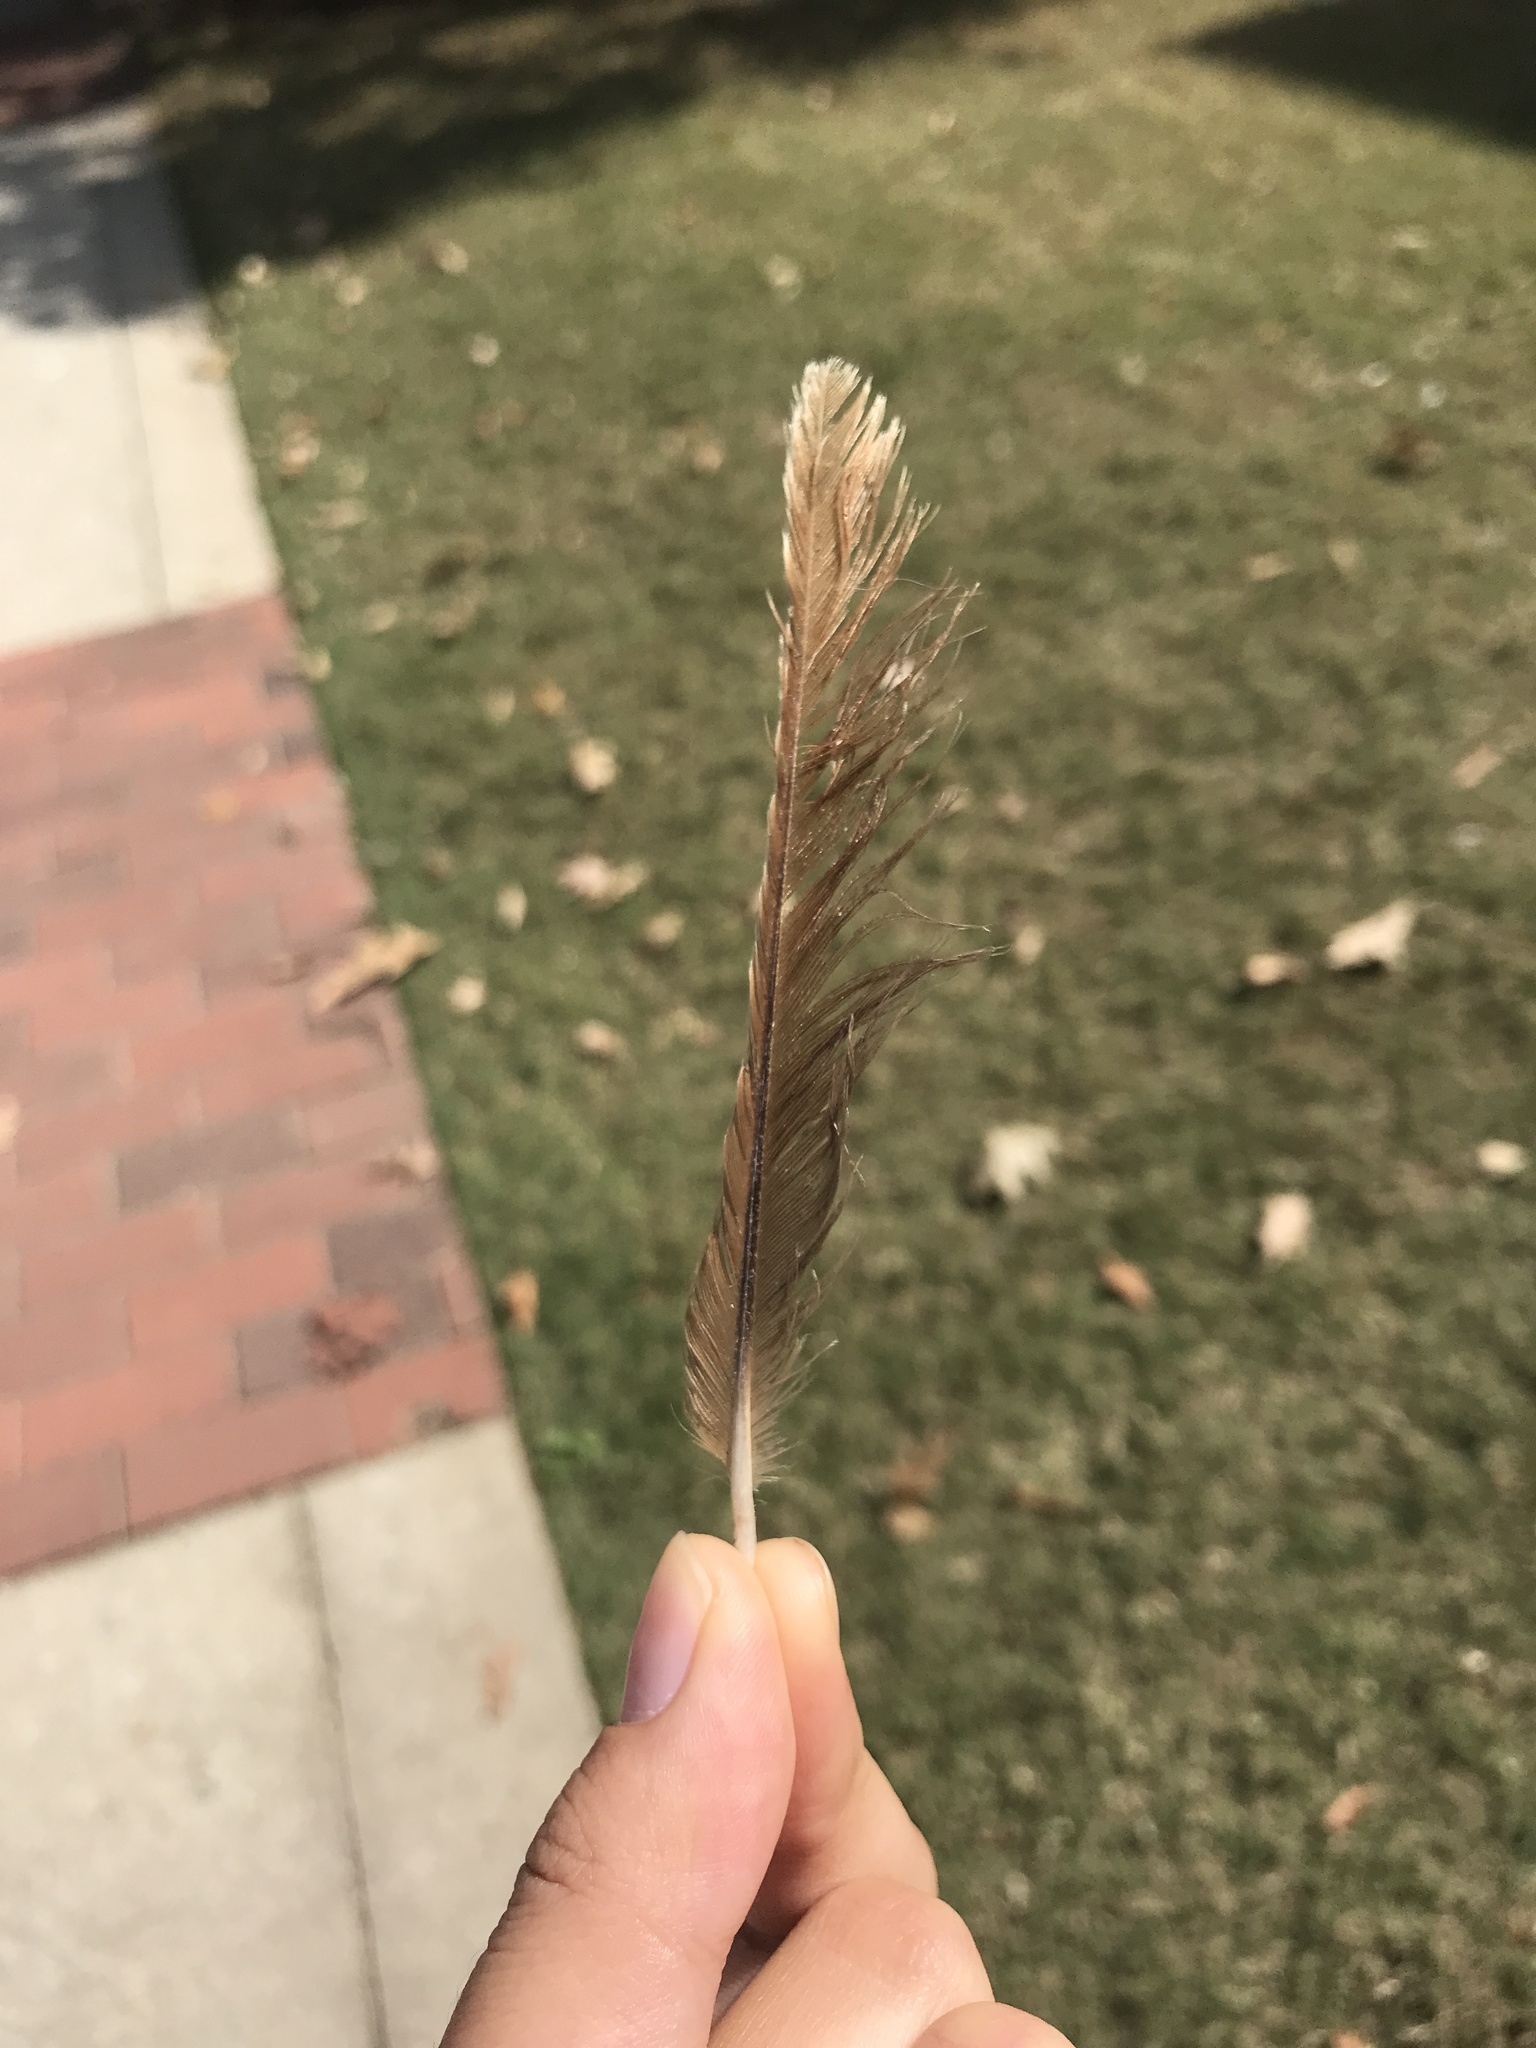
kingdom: Animalia
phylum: Chordata
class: Aves
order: Passeriformes
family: Mimidae
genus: Toxostoma
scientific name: Toxostoma rufum
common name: Brown thrasher
